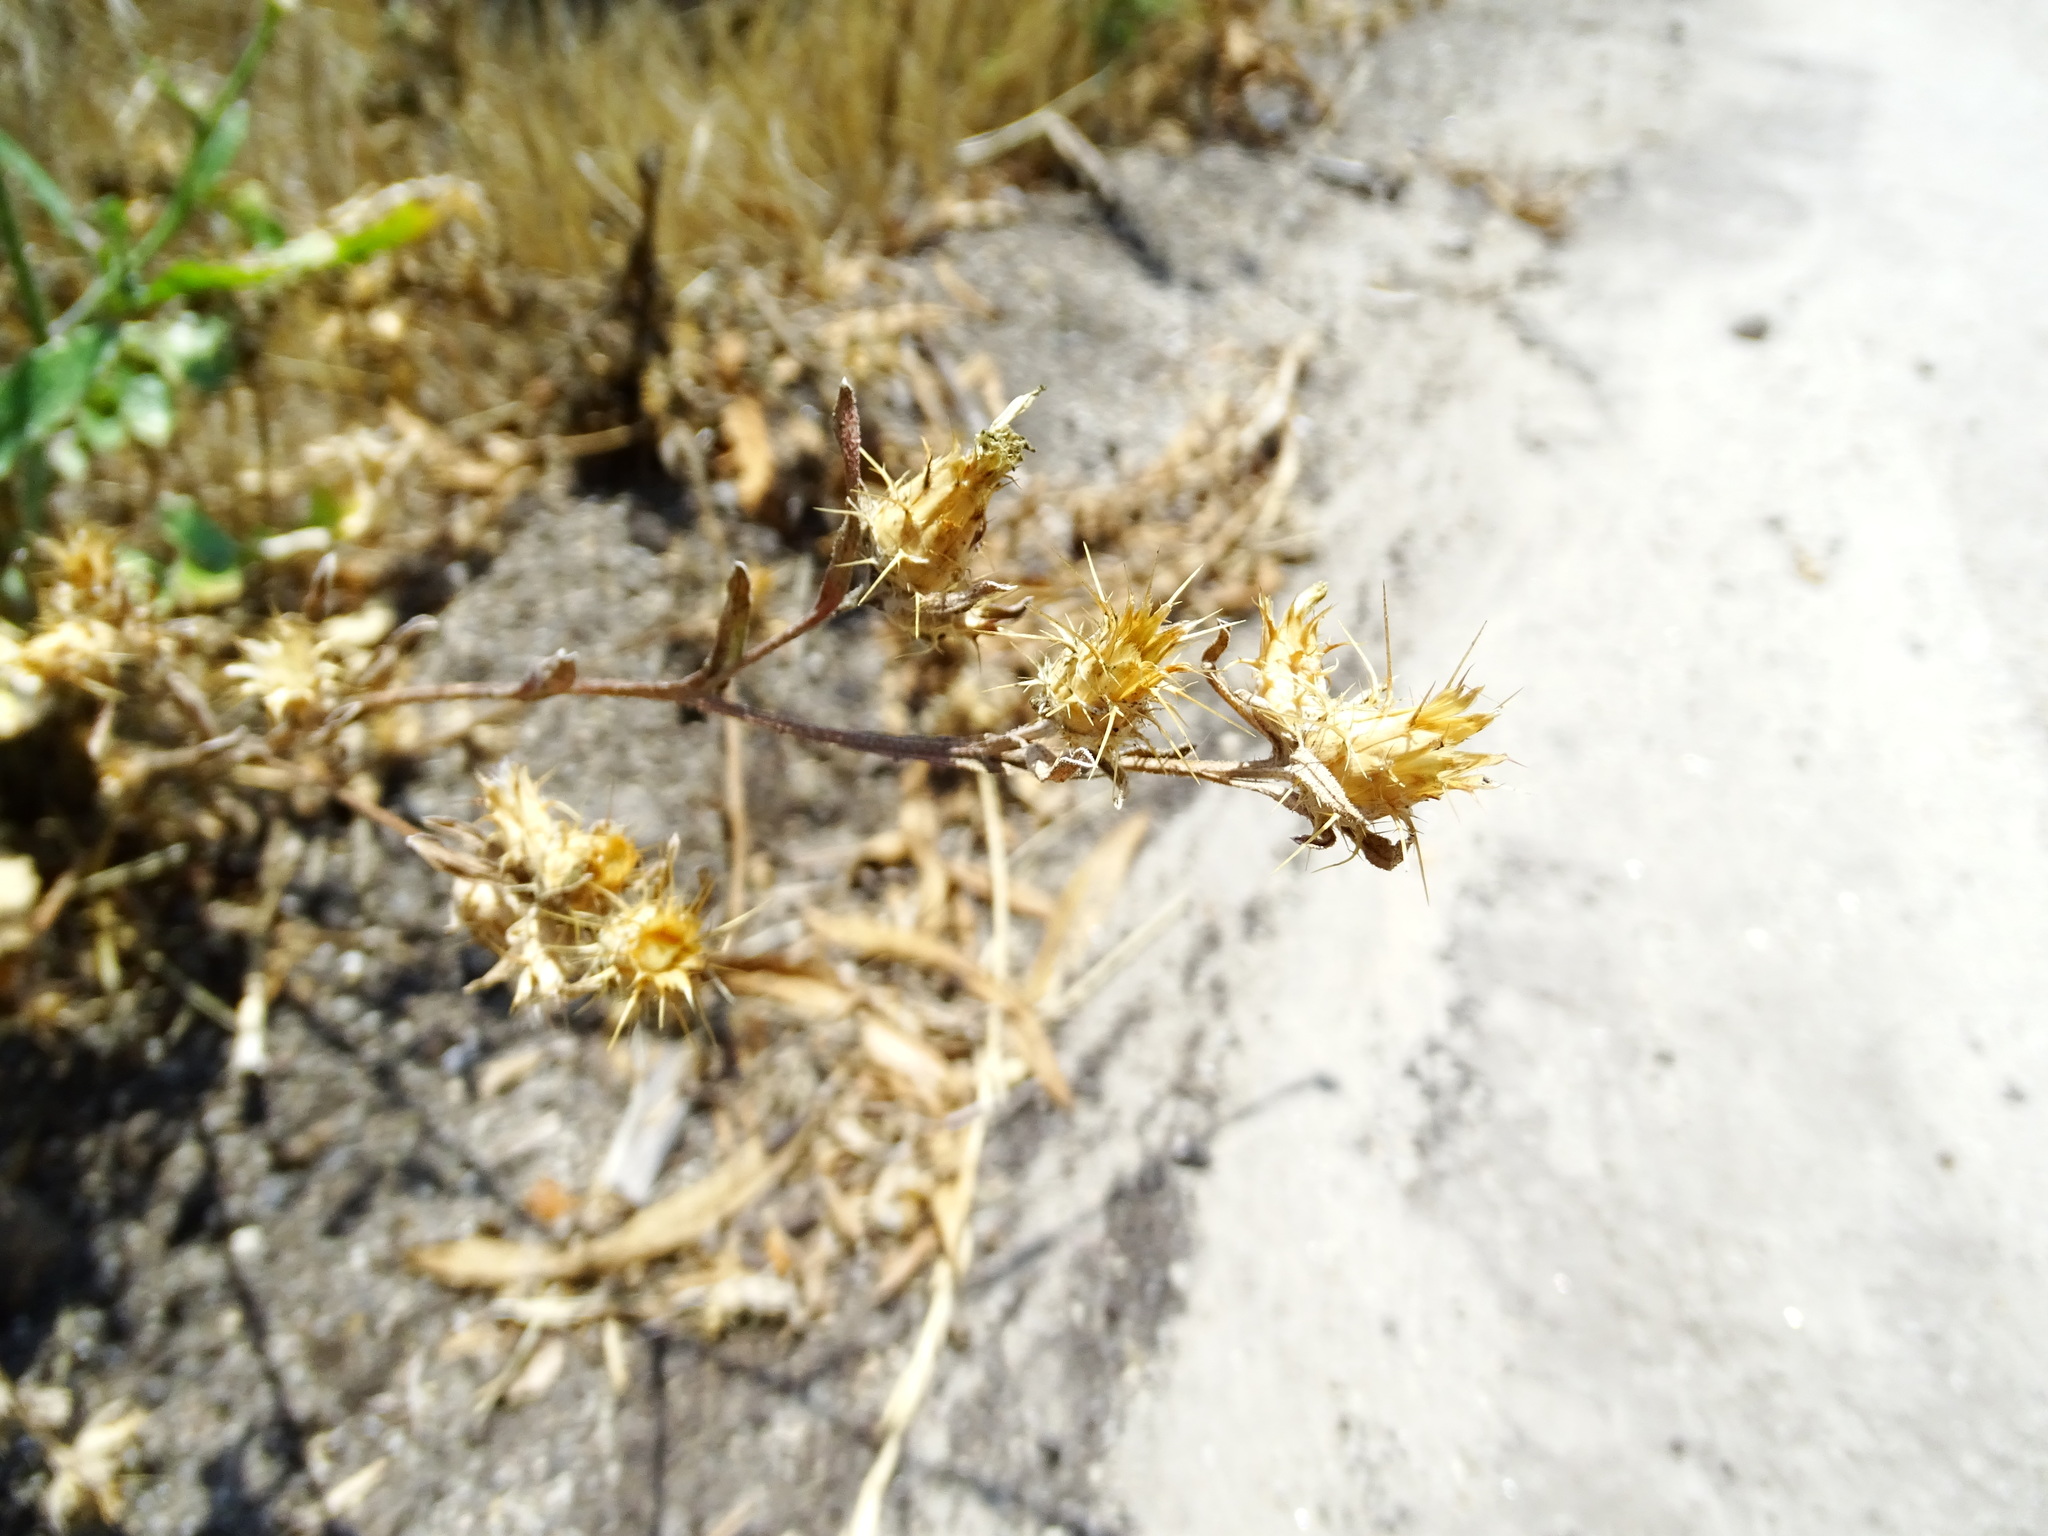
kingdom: Plantae
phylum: Tracheophyta
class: Magnoliopsida
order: Asterales
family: Asteraceae
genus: Centaurea
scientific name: Centaurea melitensis
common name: Maltese star-thistle
